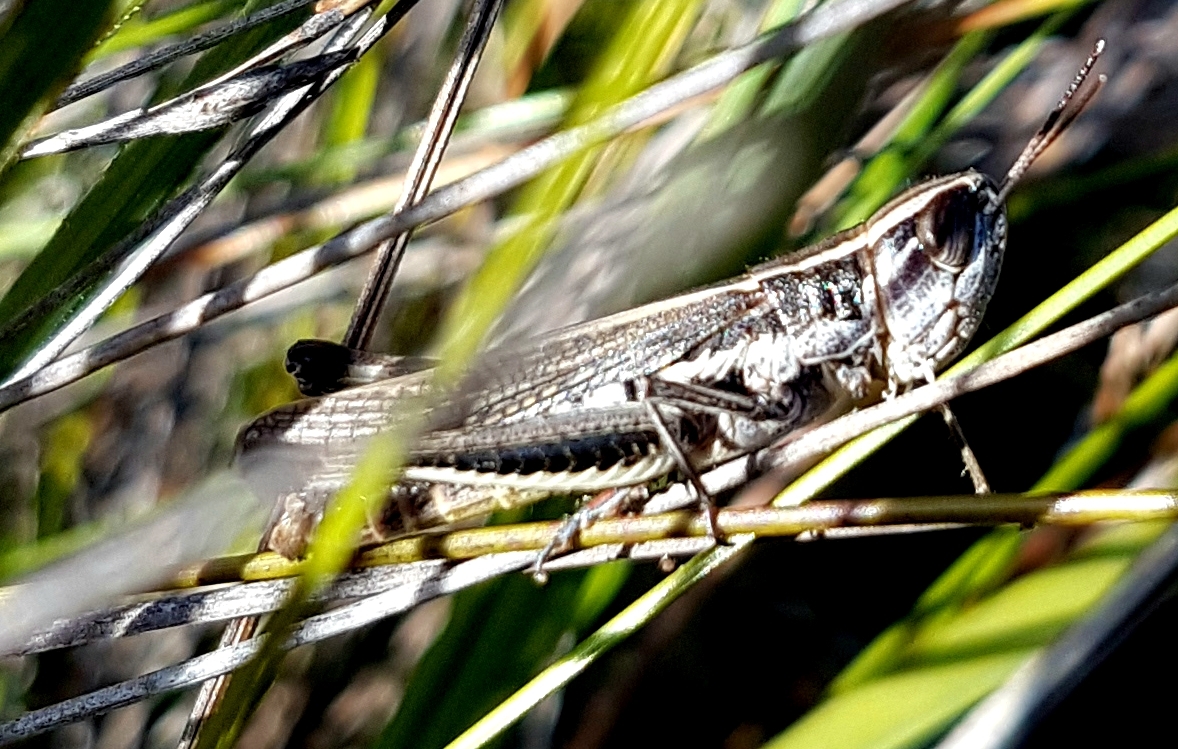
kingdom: Animalia
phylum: Arthropoda
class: Insecta
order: Orthoptera
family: Acrididae
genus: Macrotona
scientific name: Macrotona securiformis
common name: Inland macrotona
